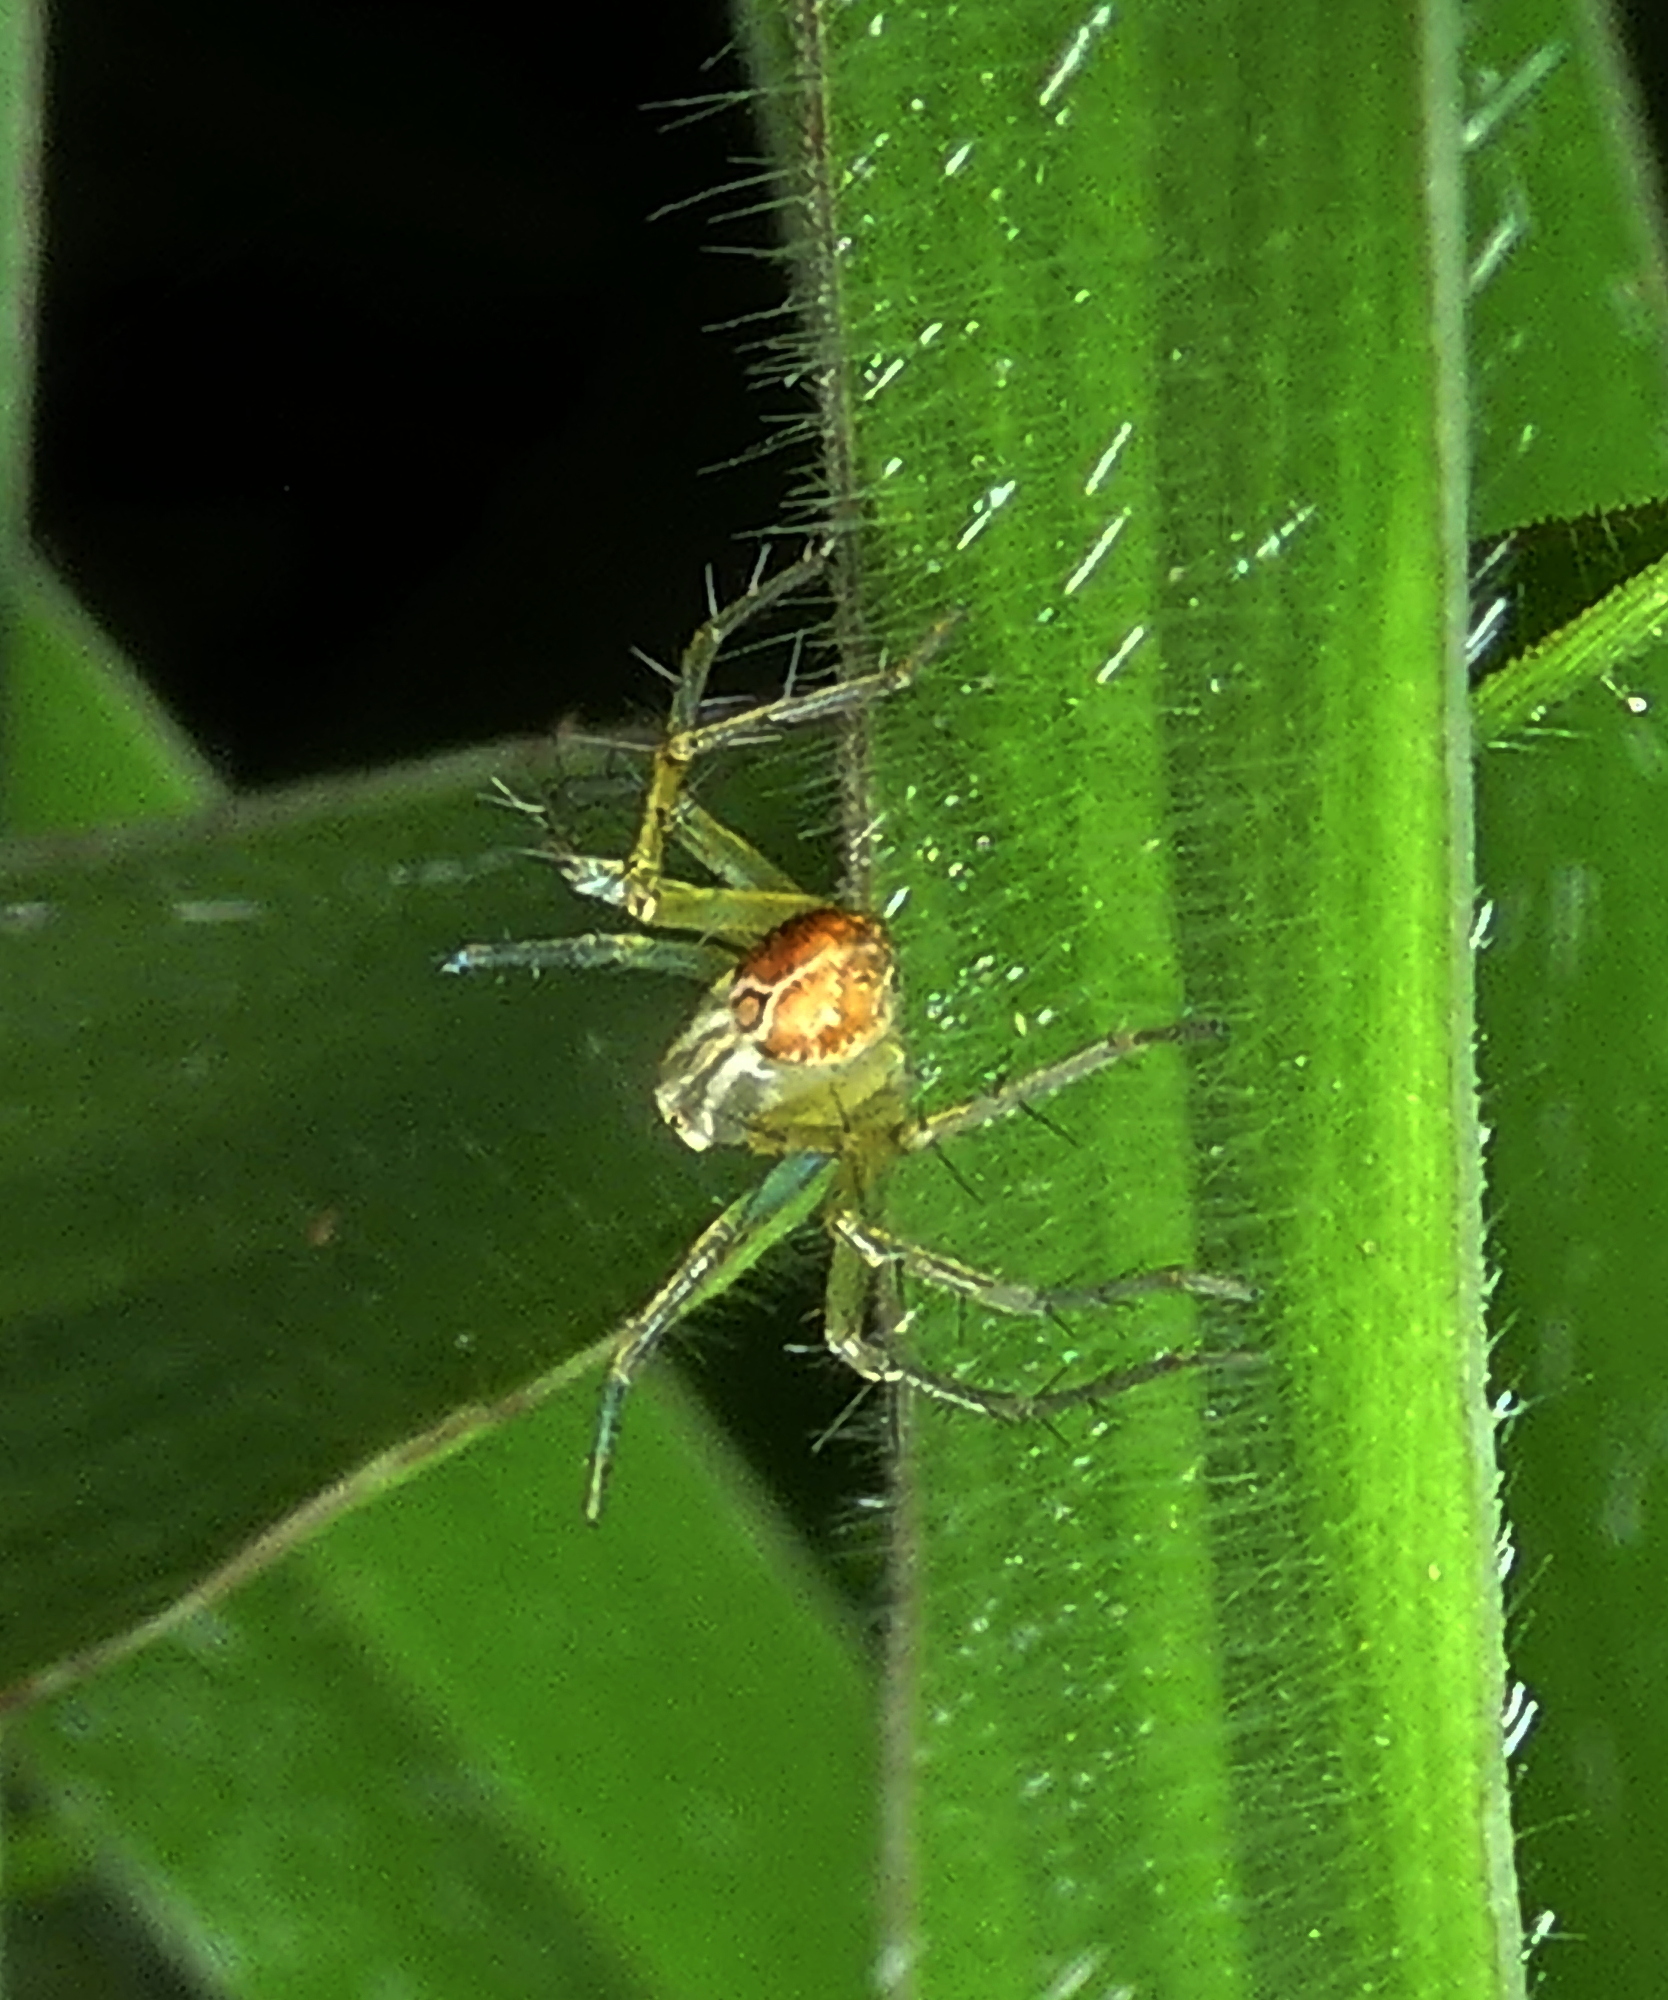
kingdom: Animalia
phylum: Arthropoda
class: Arachnida
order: Araneae
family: Oxyopidae
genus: Oxyopes
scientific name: Oxyopes salticus
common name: Lynx spiders
